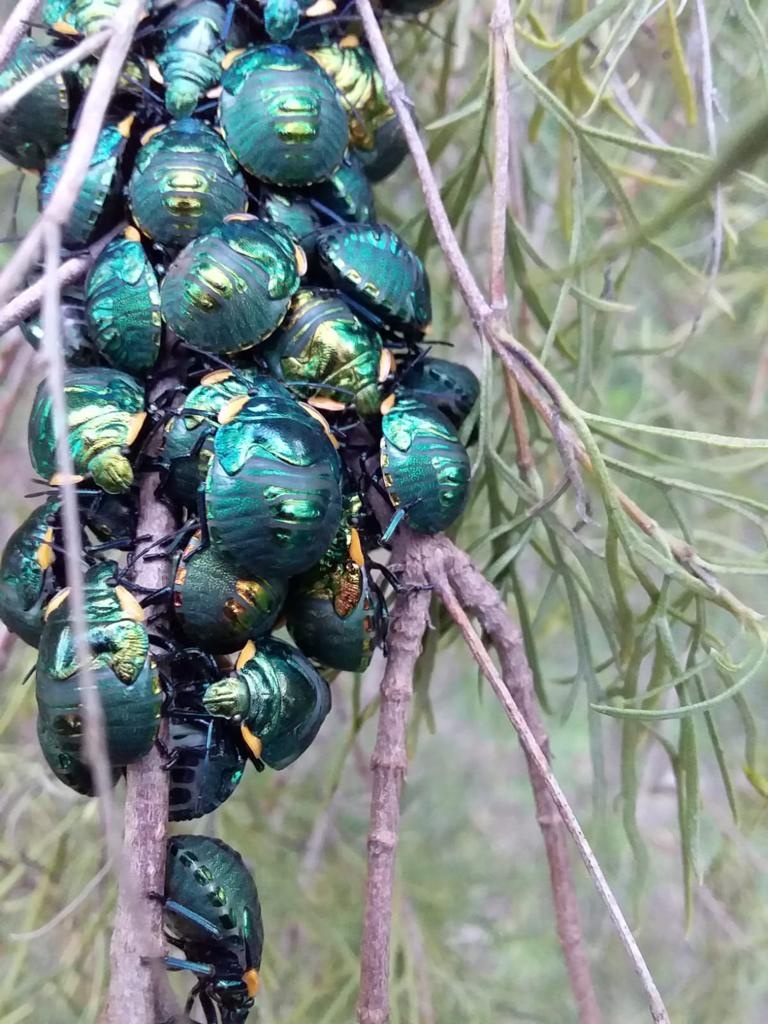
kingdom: Animalia
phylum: Arthropoda
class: Insecta
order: Hemiptera
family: Scutelleridae
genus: Pachycoris
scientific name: Pachycoris torridus
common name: Torrid jewel bug
